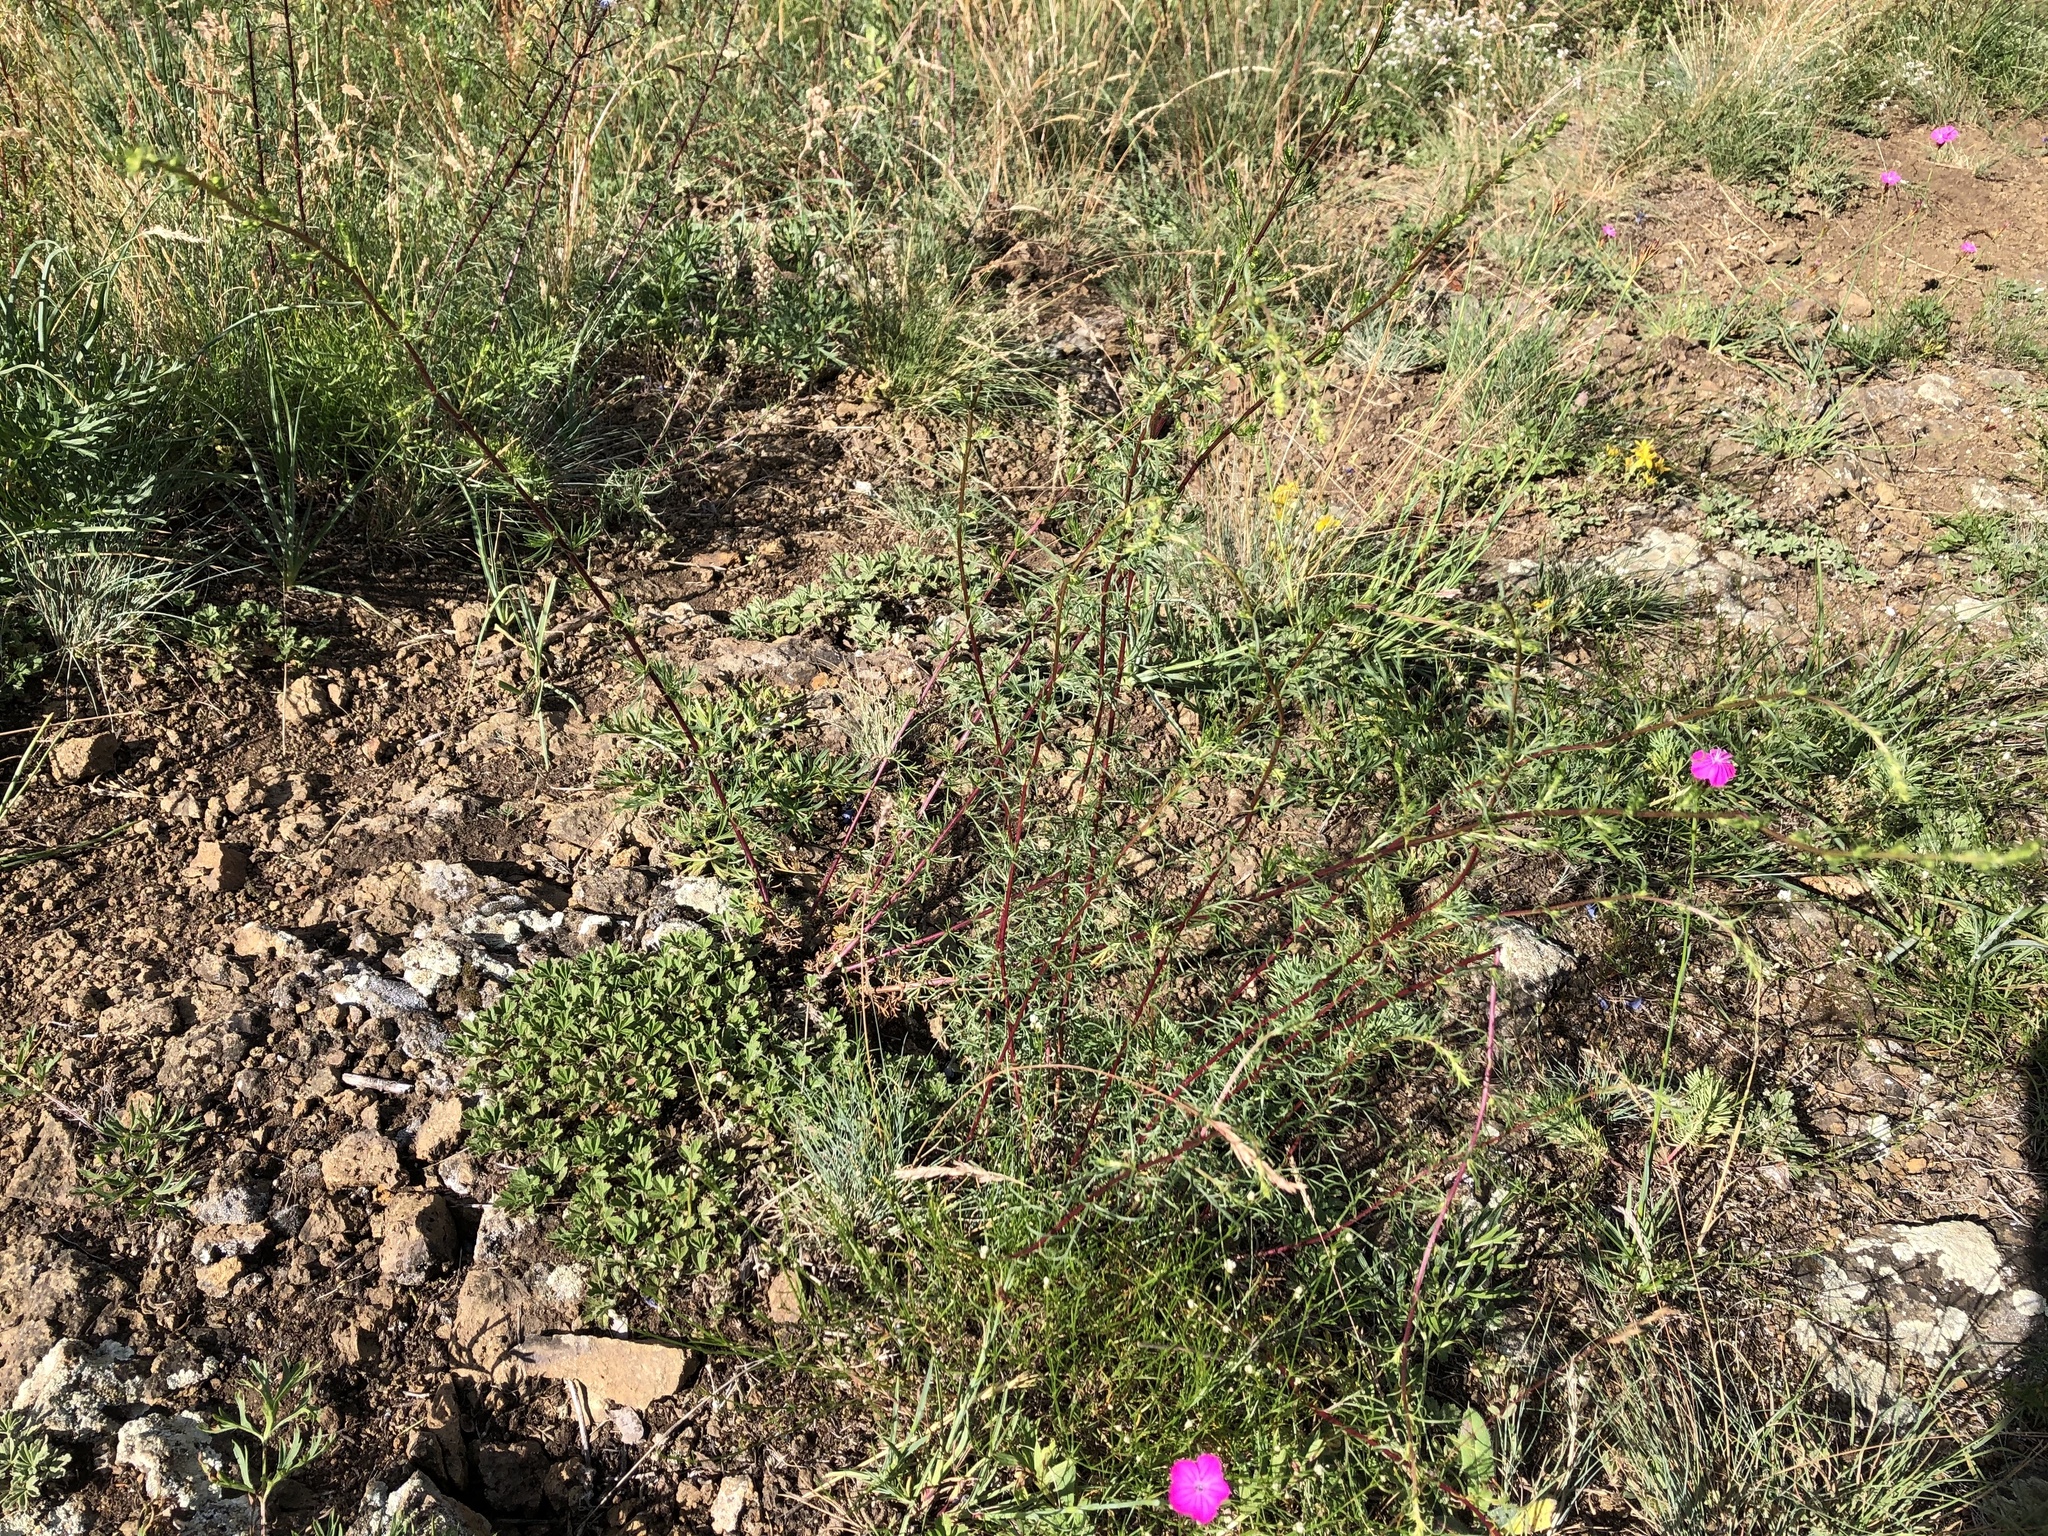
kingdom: Plantae
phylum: Tracheophyta
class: Magnoliopsida
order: Asterales
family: Asteraceae
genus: Artemisia
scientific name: Artemisia campestris
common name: Field wormwood
